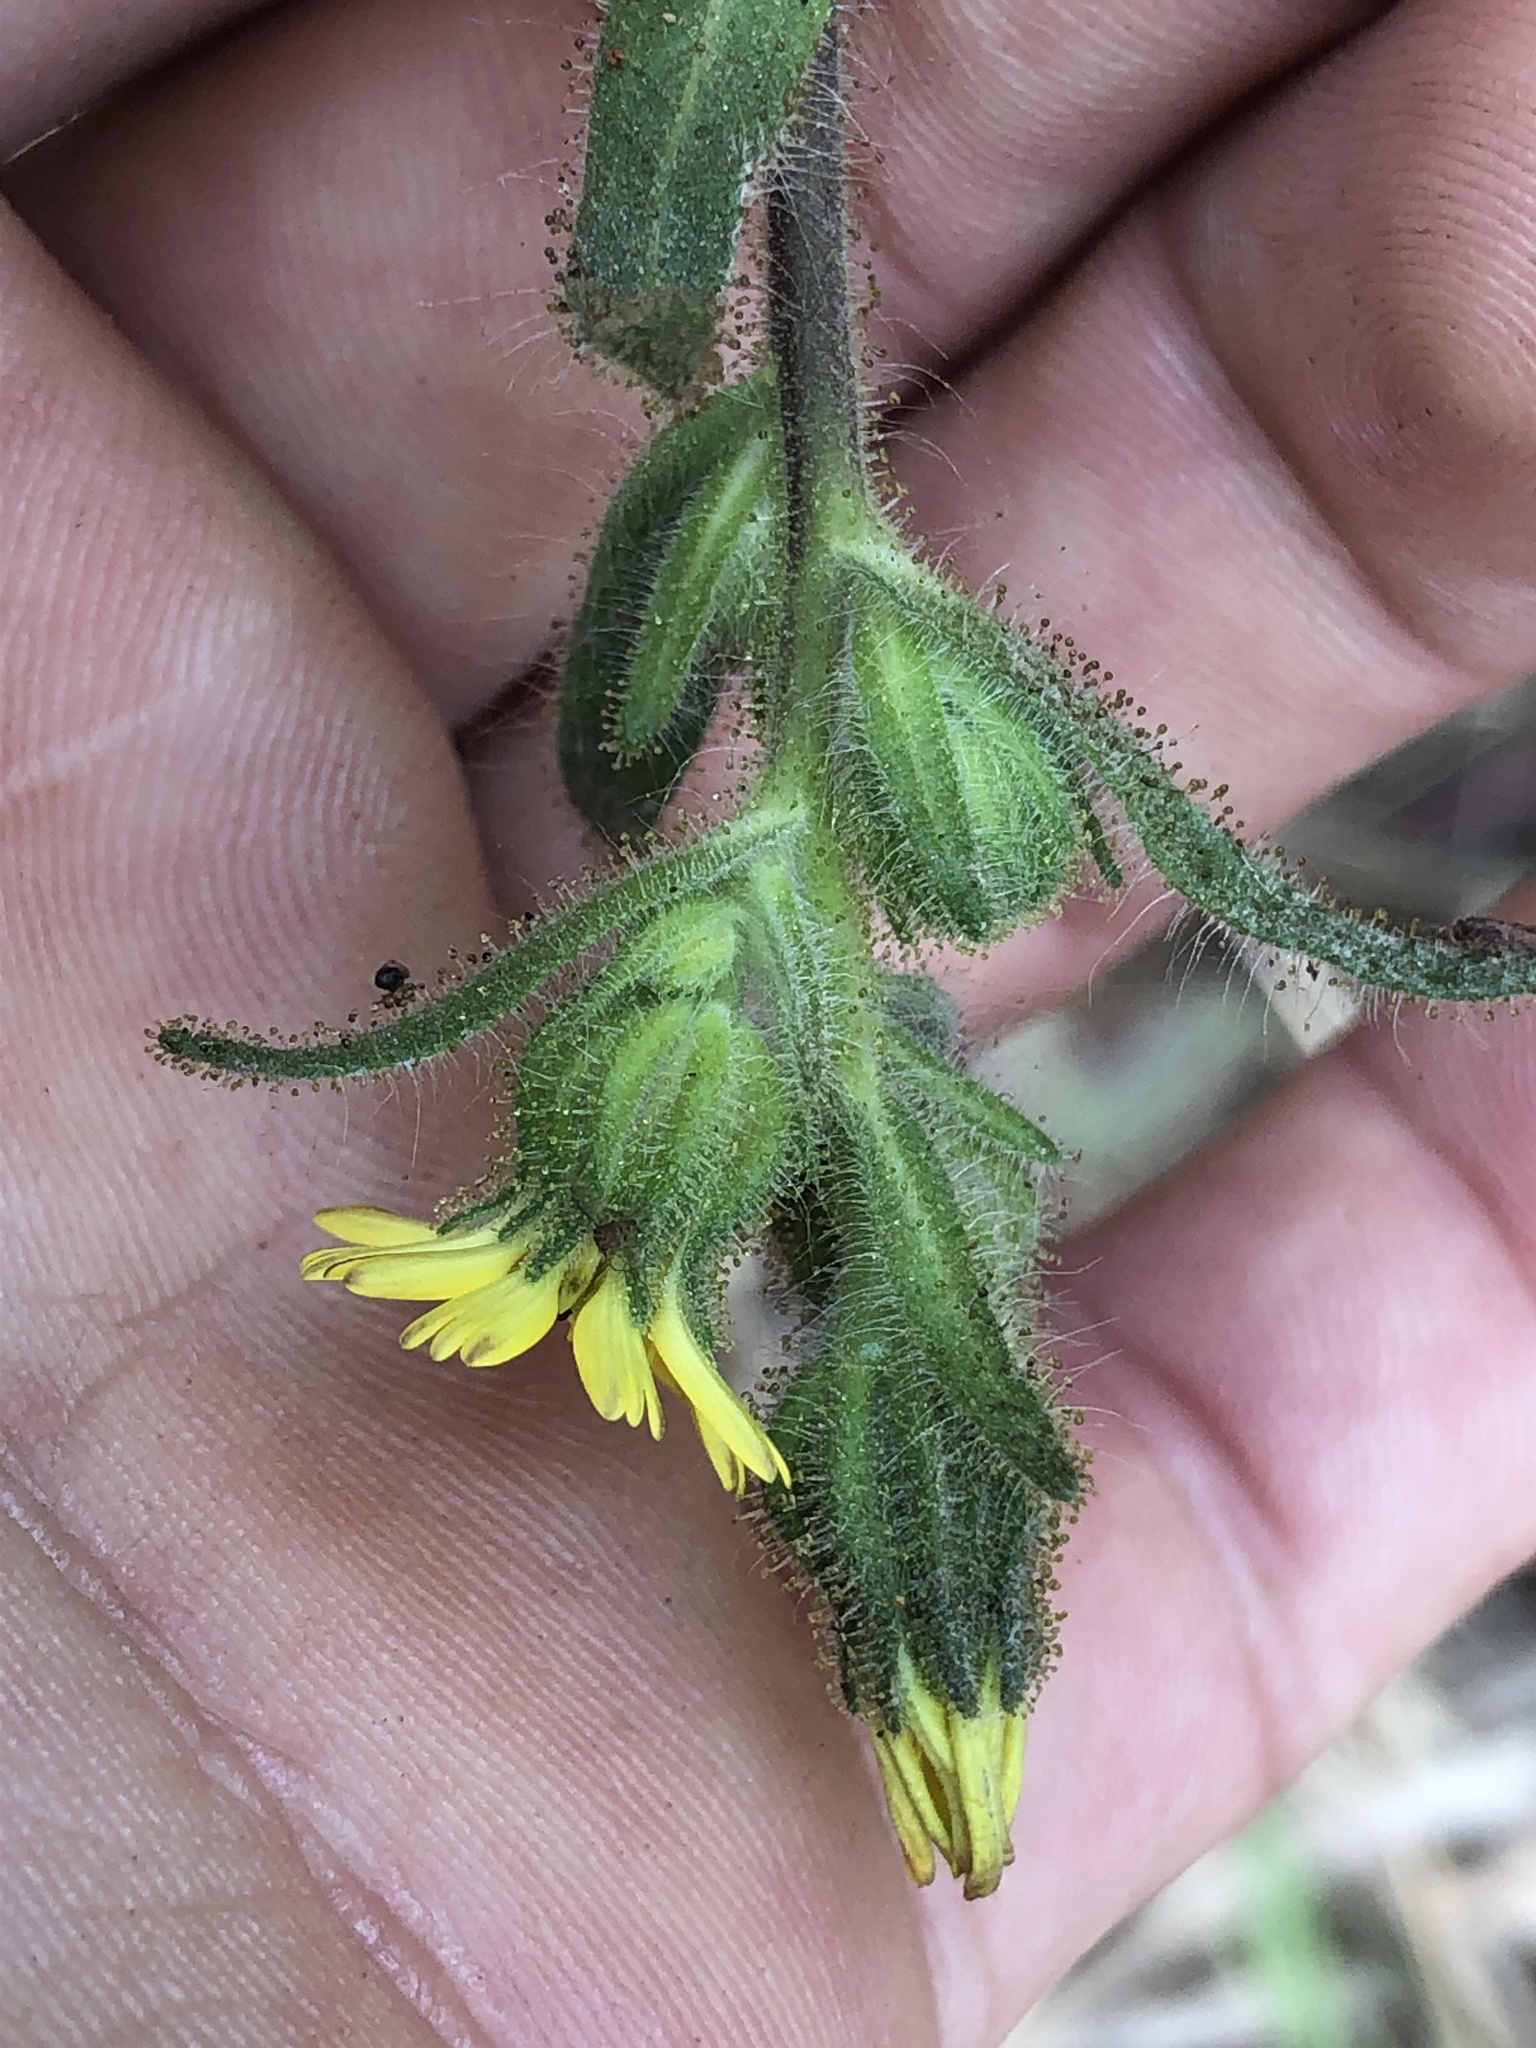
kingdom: Plantae
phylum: Tracheophyta
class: Magnoliopsida
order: Asterales
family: Asteraceae
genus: Madia
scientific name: Madia sativa
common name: Coast tarweed
